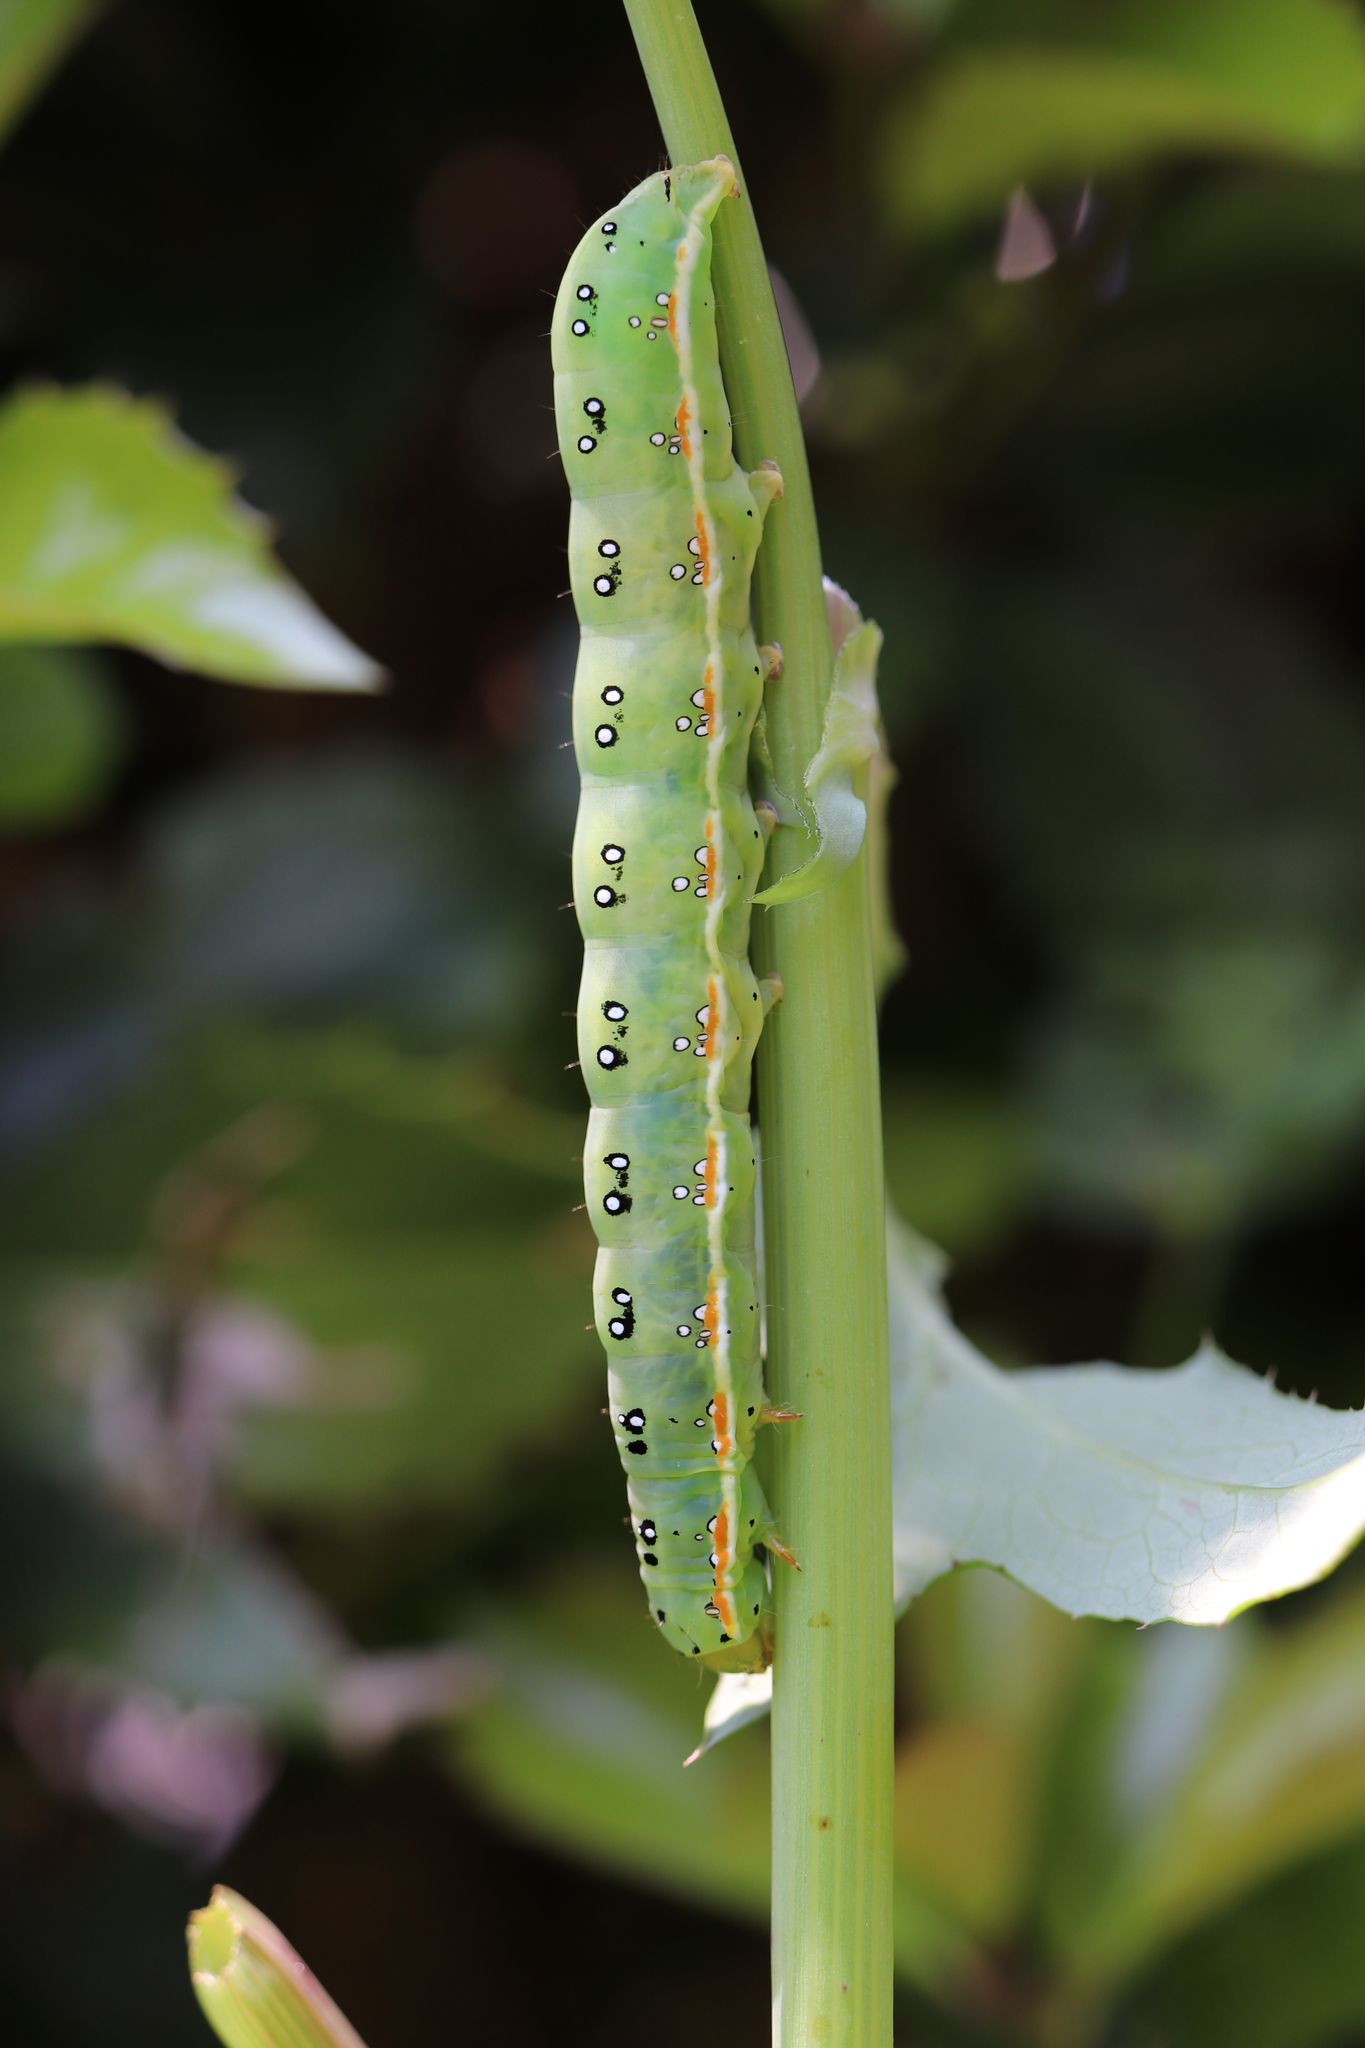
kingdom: Animalia
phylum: Arthropoda
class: Insecta
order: Lepidoptera
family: Noctuidae
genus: Xylena
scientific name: Xylena fumosa
